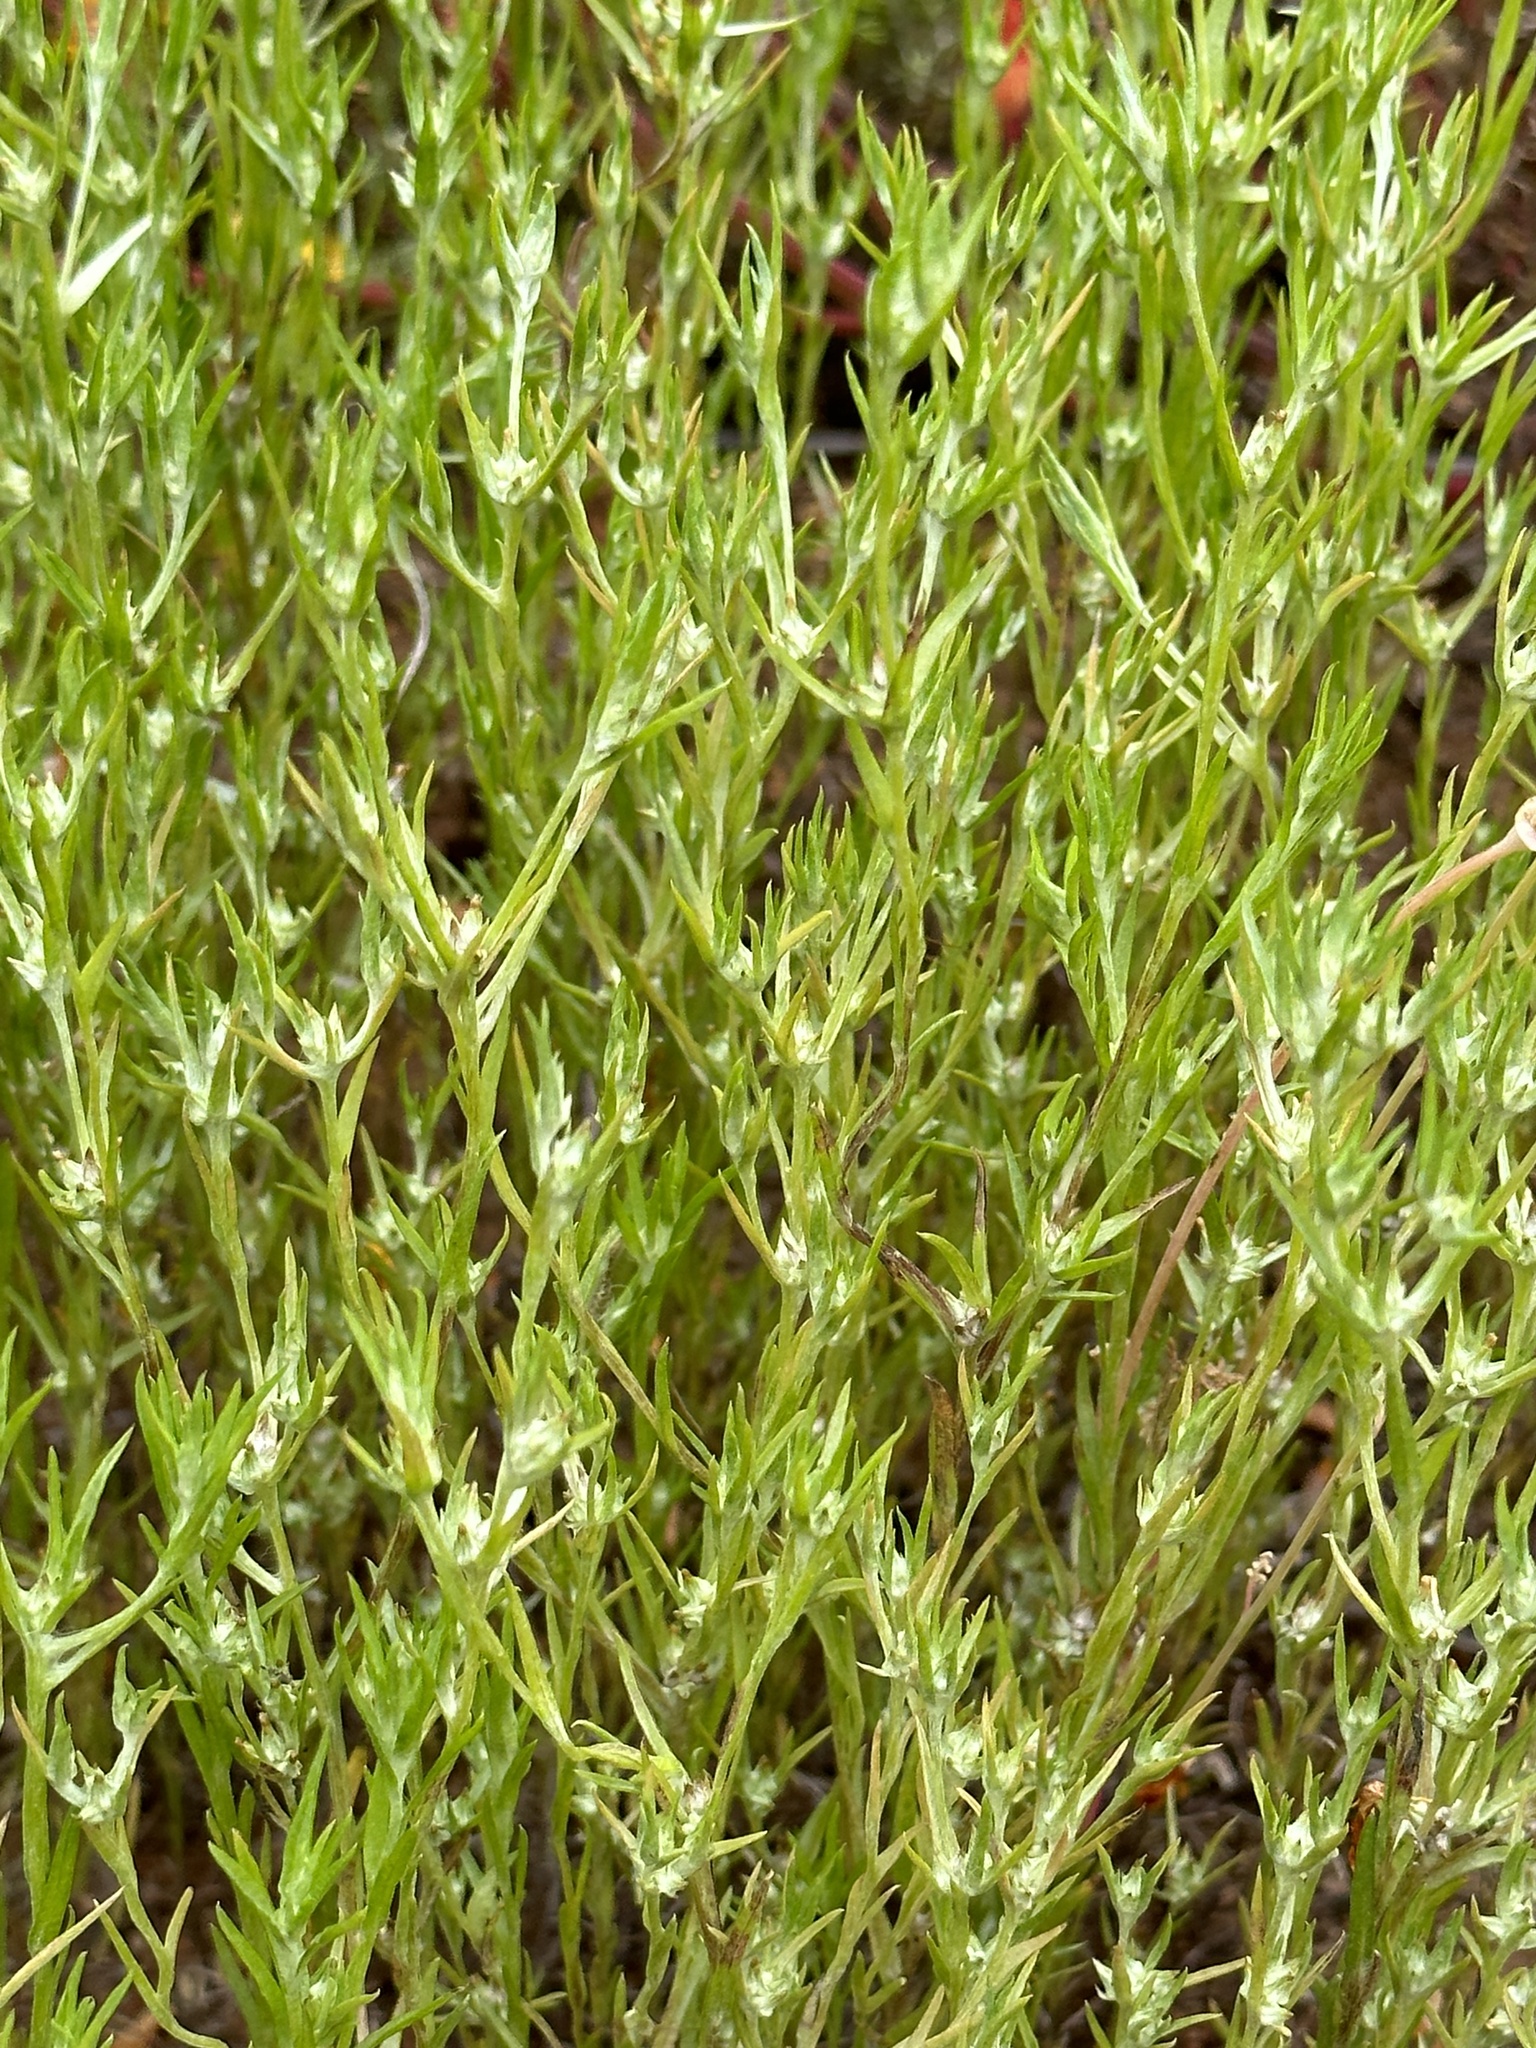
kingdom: Plantae
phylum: Tracheophyta
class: Magnoliopsida
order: Asterales
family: Asteraceae
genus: Logfia
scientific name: Logfia gallica
